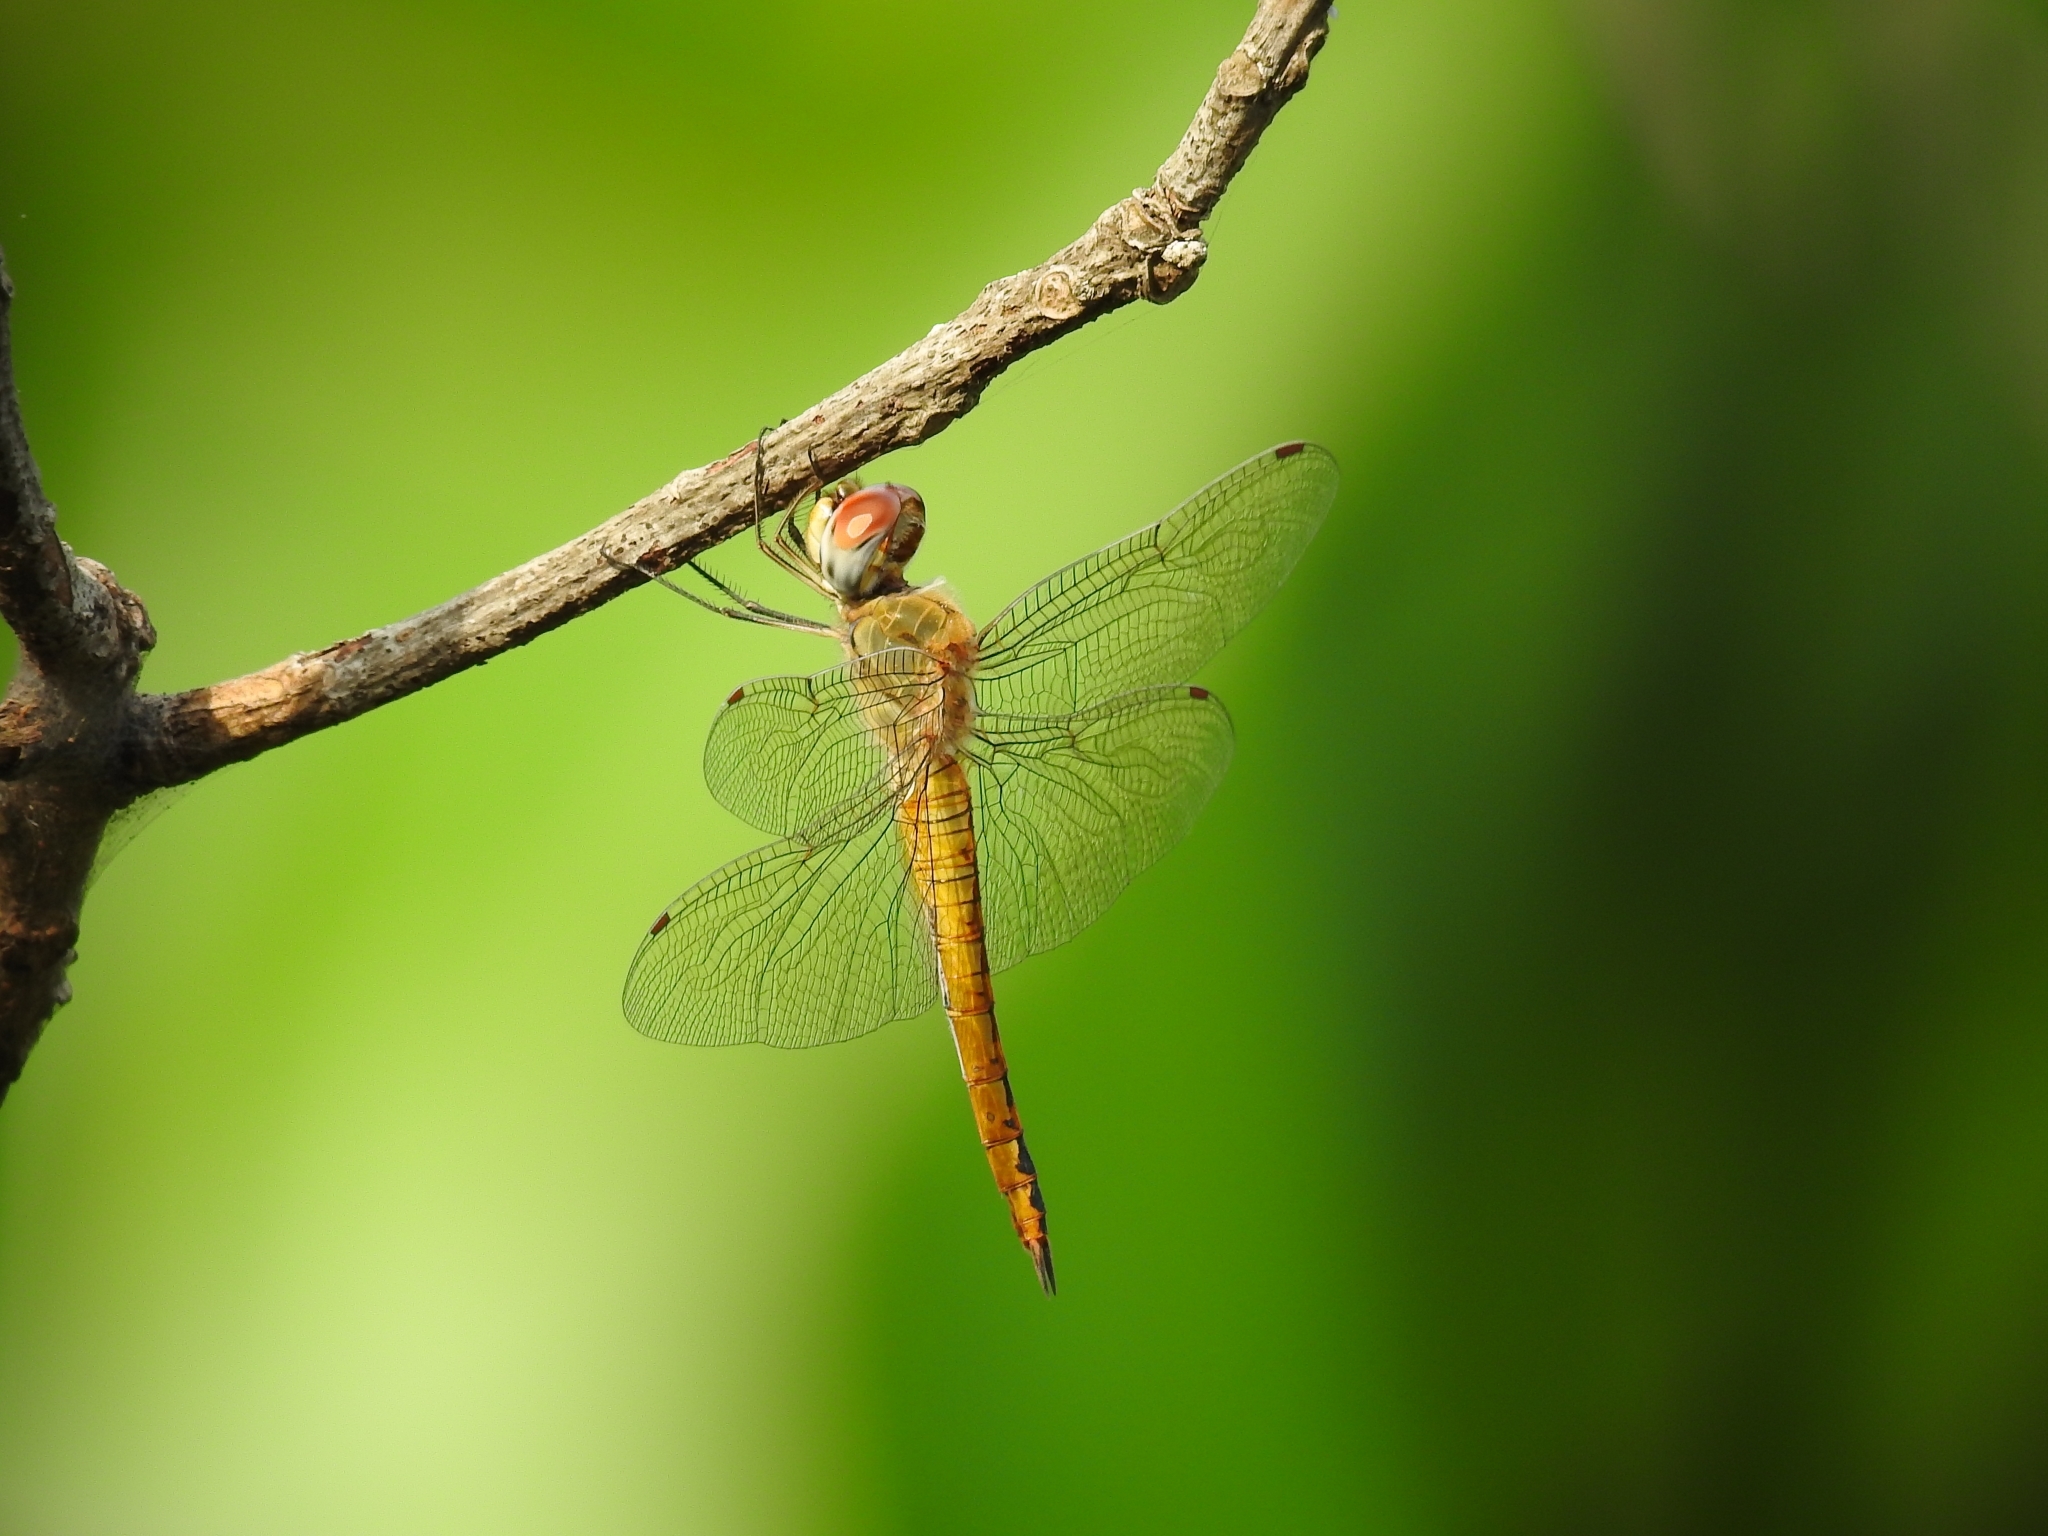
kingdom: Animalia
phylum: Arthropoda
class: Insecta
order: Odonata
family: Libellulidae
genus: Pantala
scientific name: Pantala flavescens
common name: Wandering glider
